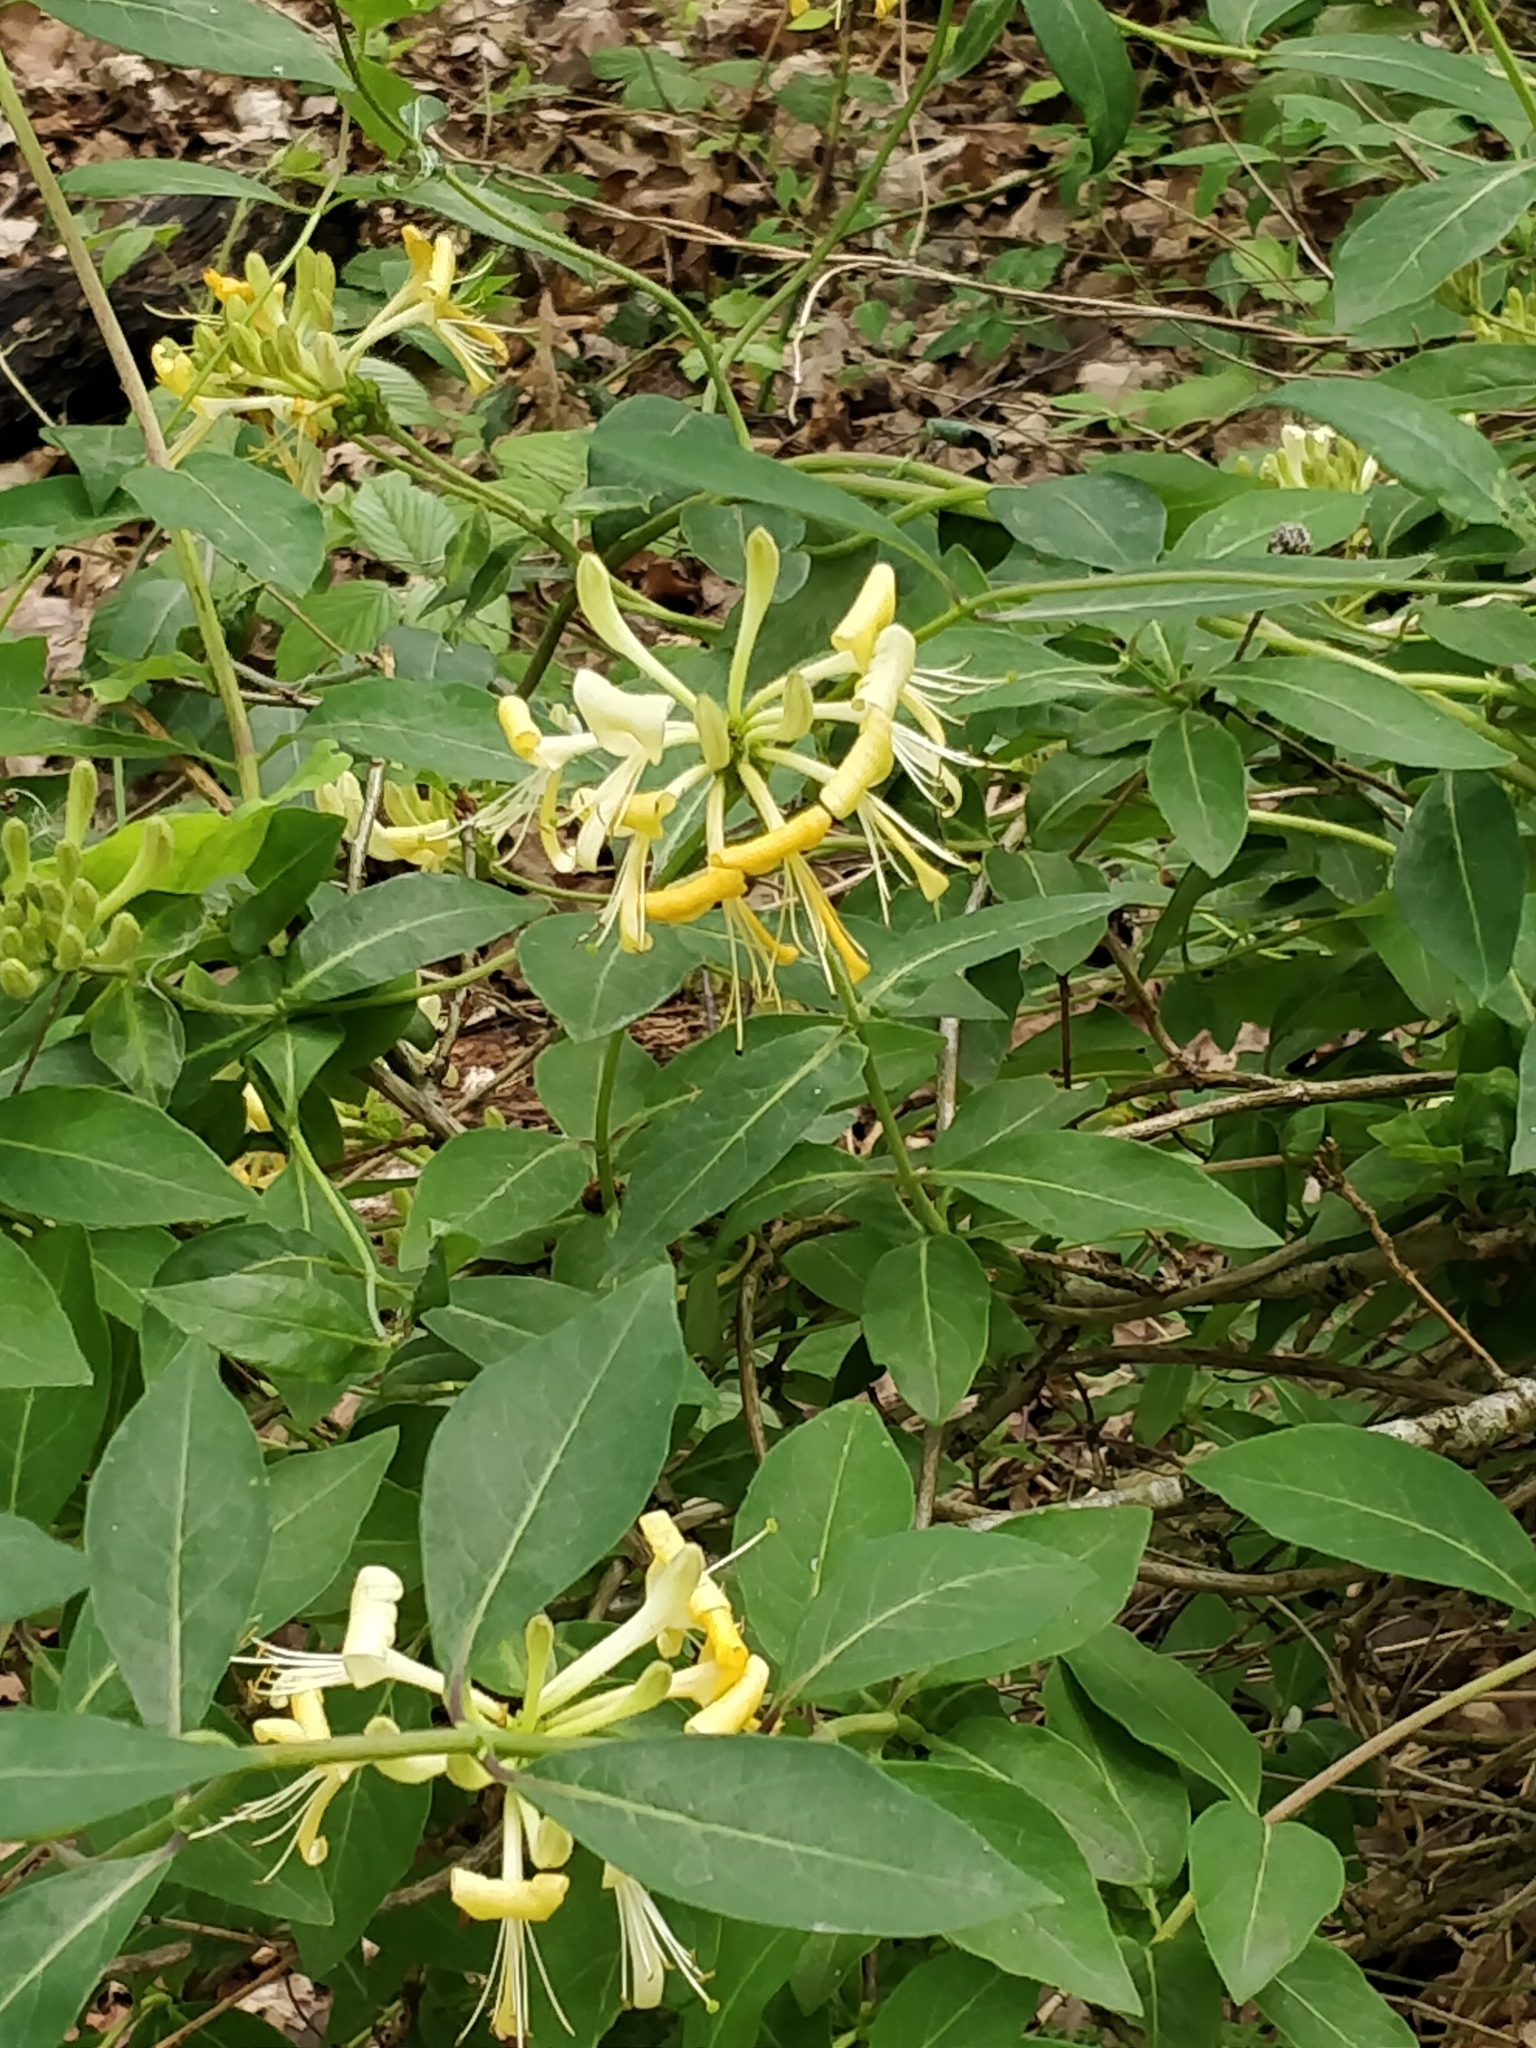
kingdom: Plantae
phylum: Tracheophyta
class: Magnoliopsida
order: Dipsacales
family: Caprifoliaceae
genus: Lonicera
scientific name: Lonicera periclymenum
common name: European honeysuckle
